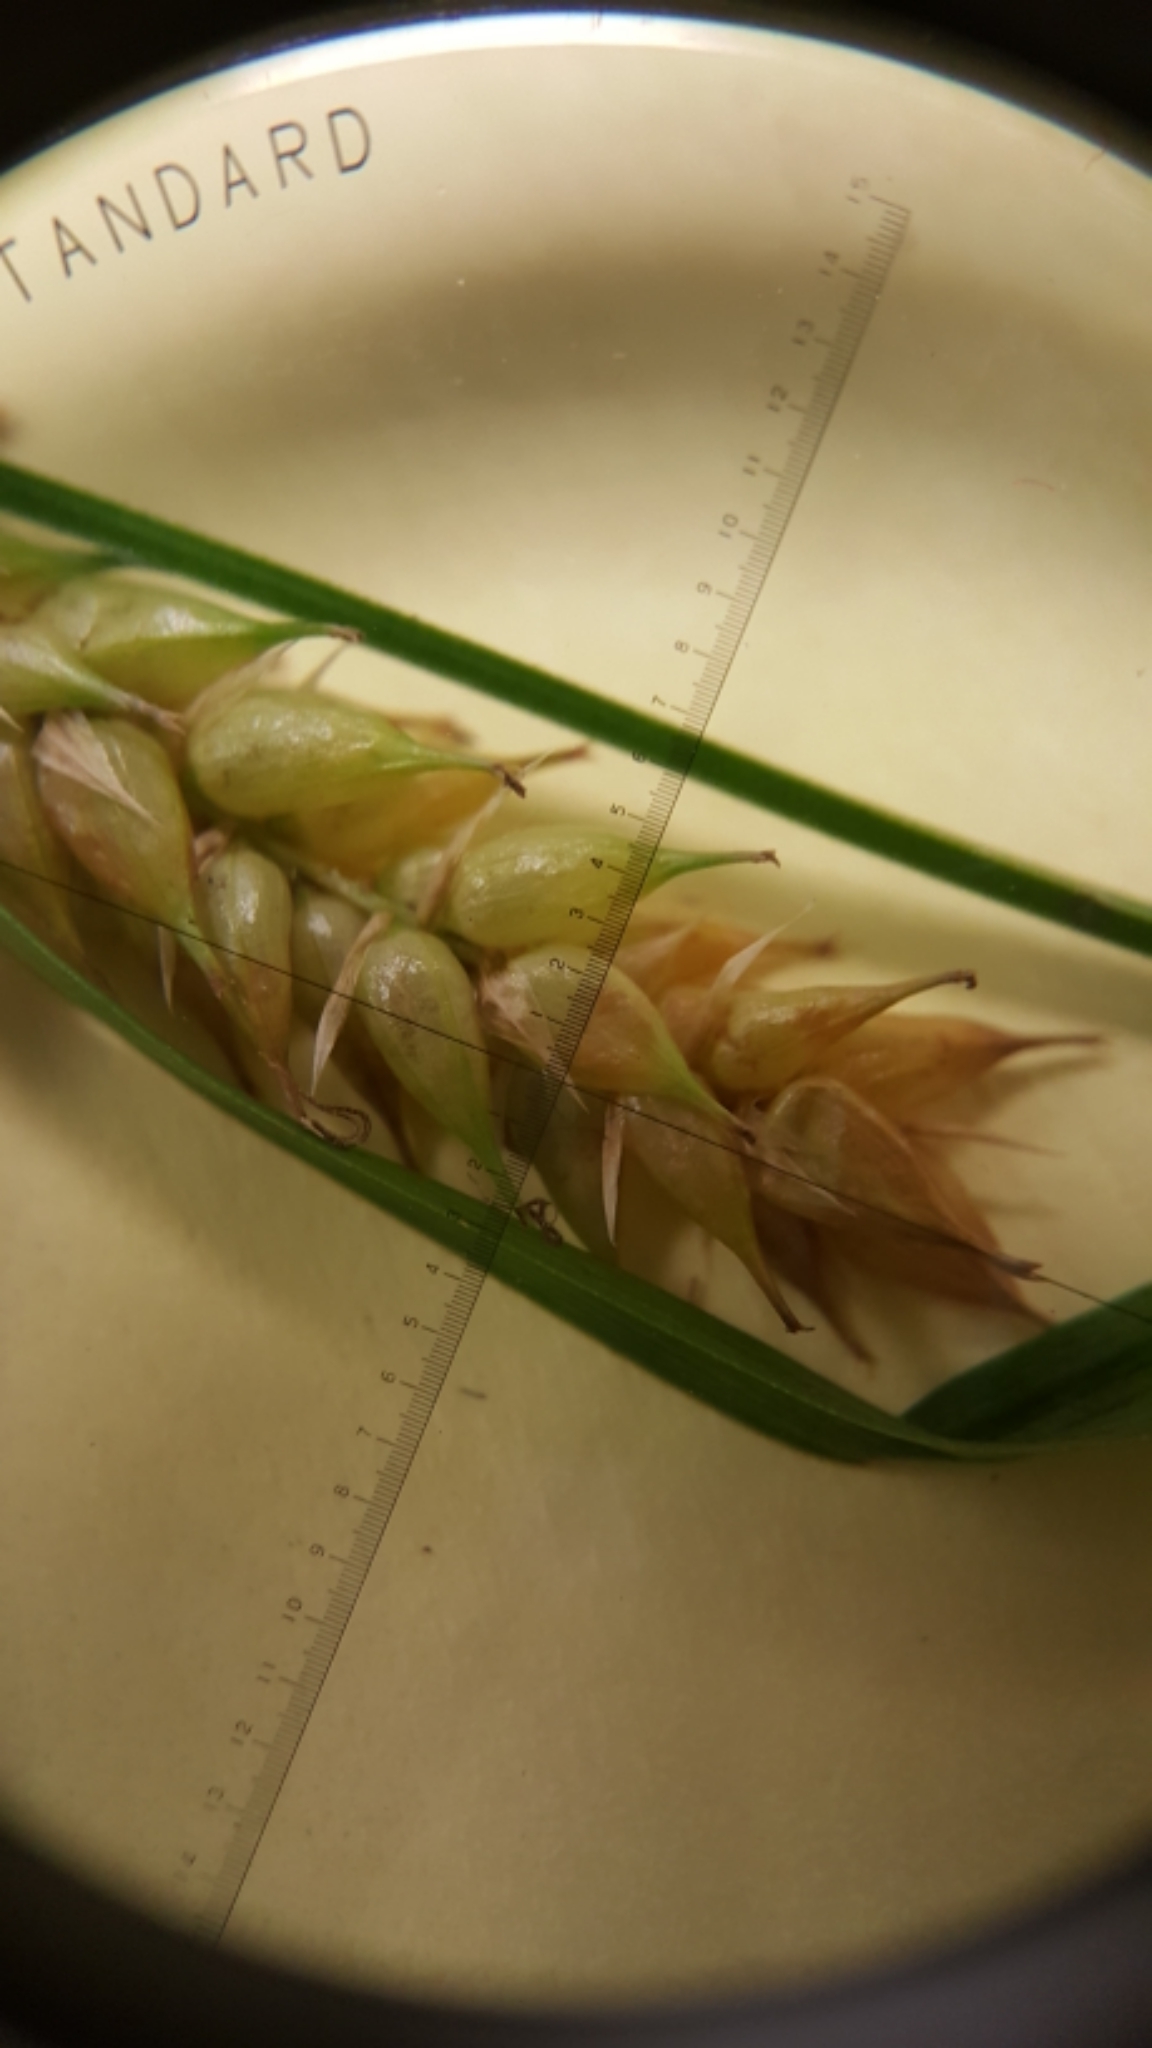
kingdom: Plantae
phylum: Tracheophyta
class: Liliopsida
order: Poales
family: Cyperaceae
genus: Carex
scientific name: Carex vesicaria
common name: Bladder-sedge
